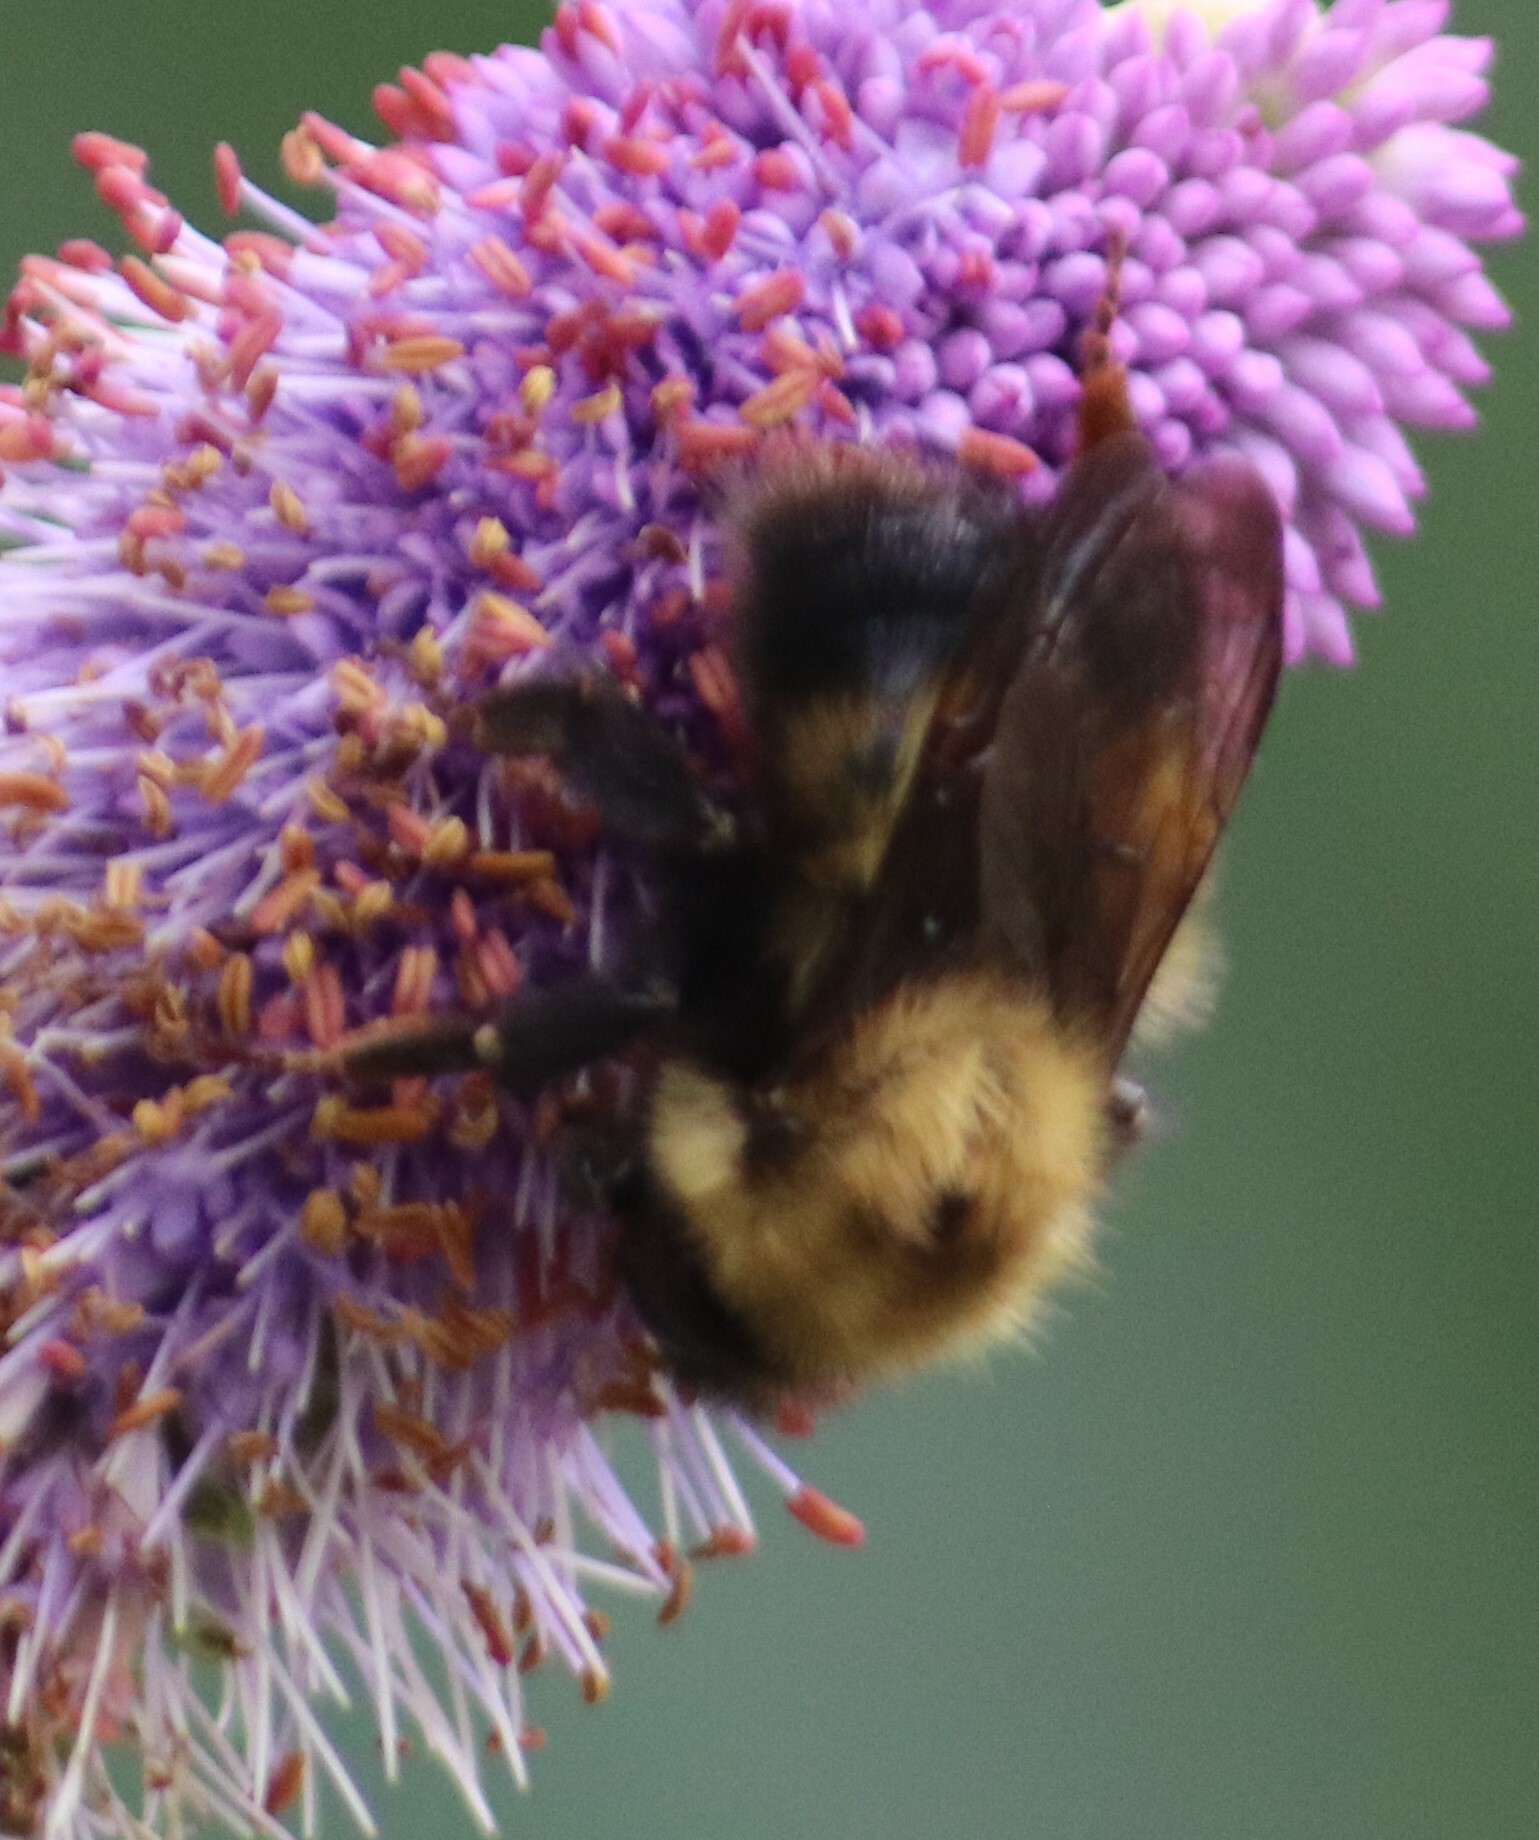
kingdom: Animalia
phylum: Arthropoda
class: Insecta
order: Hymenoptera
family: Apidae
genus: Bombus
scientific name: Bombus perplexus
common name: Confusing bumble bee
